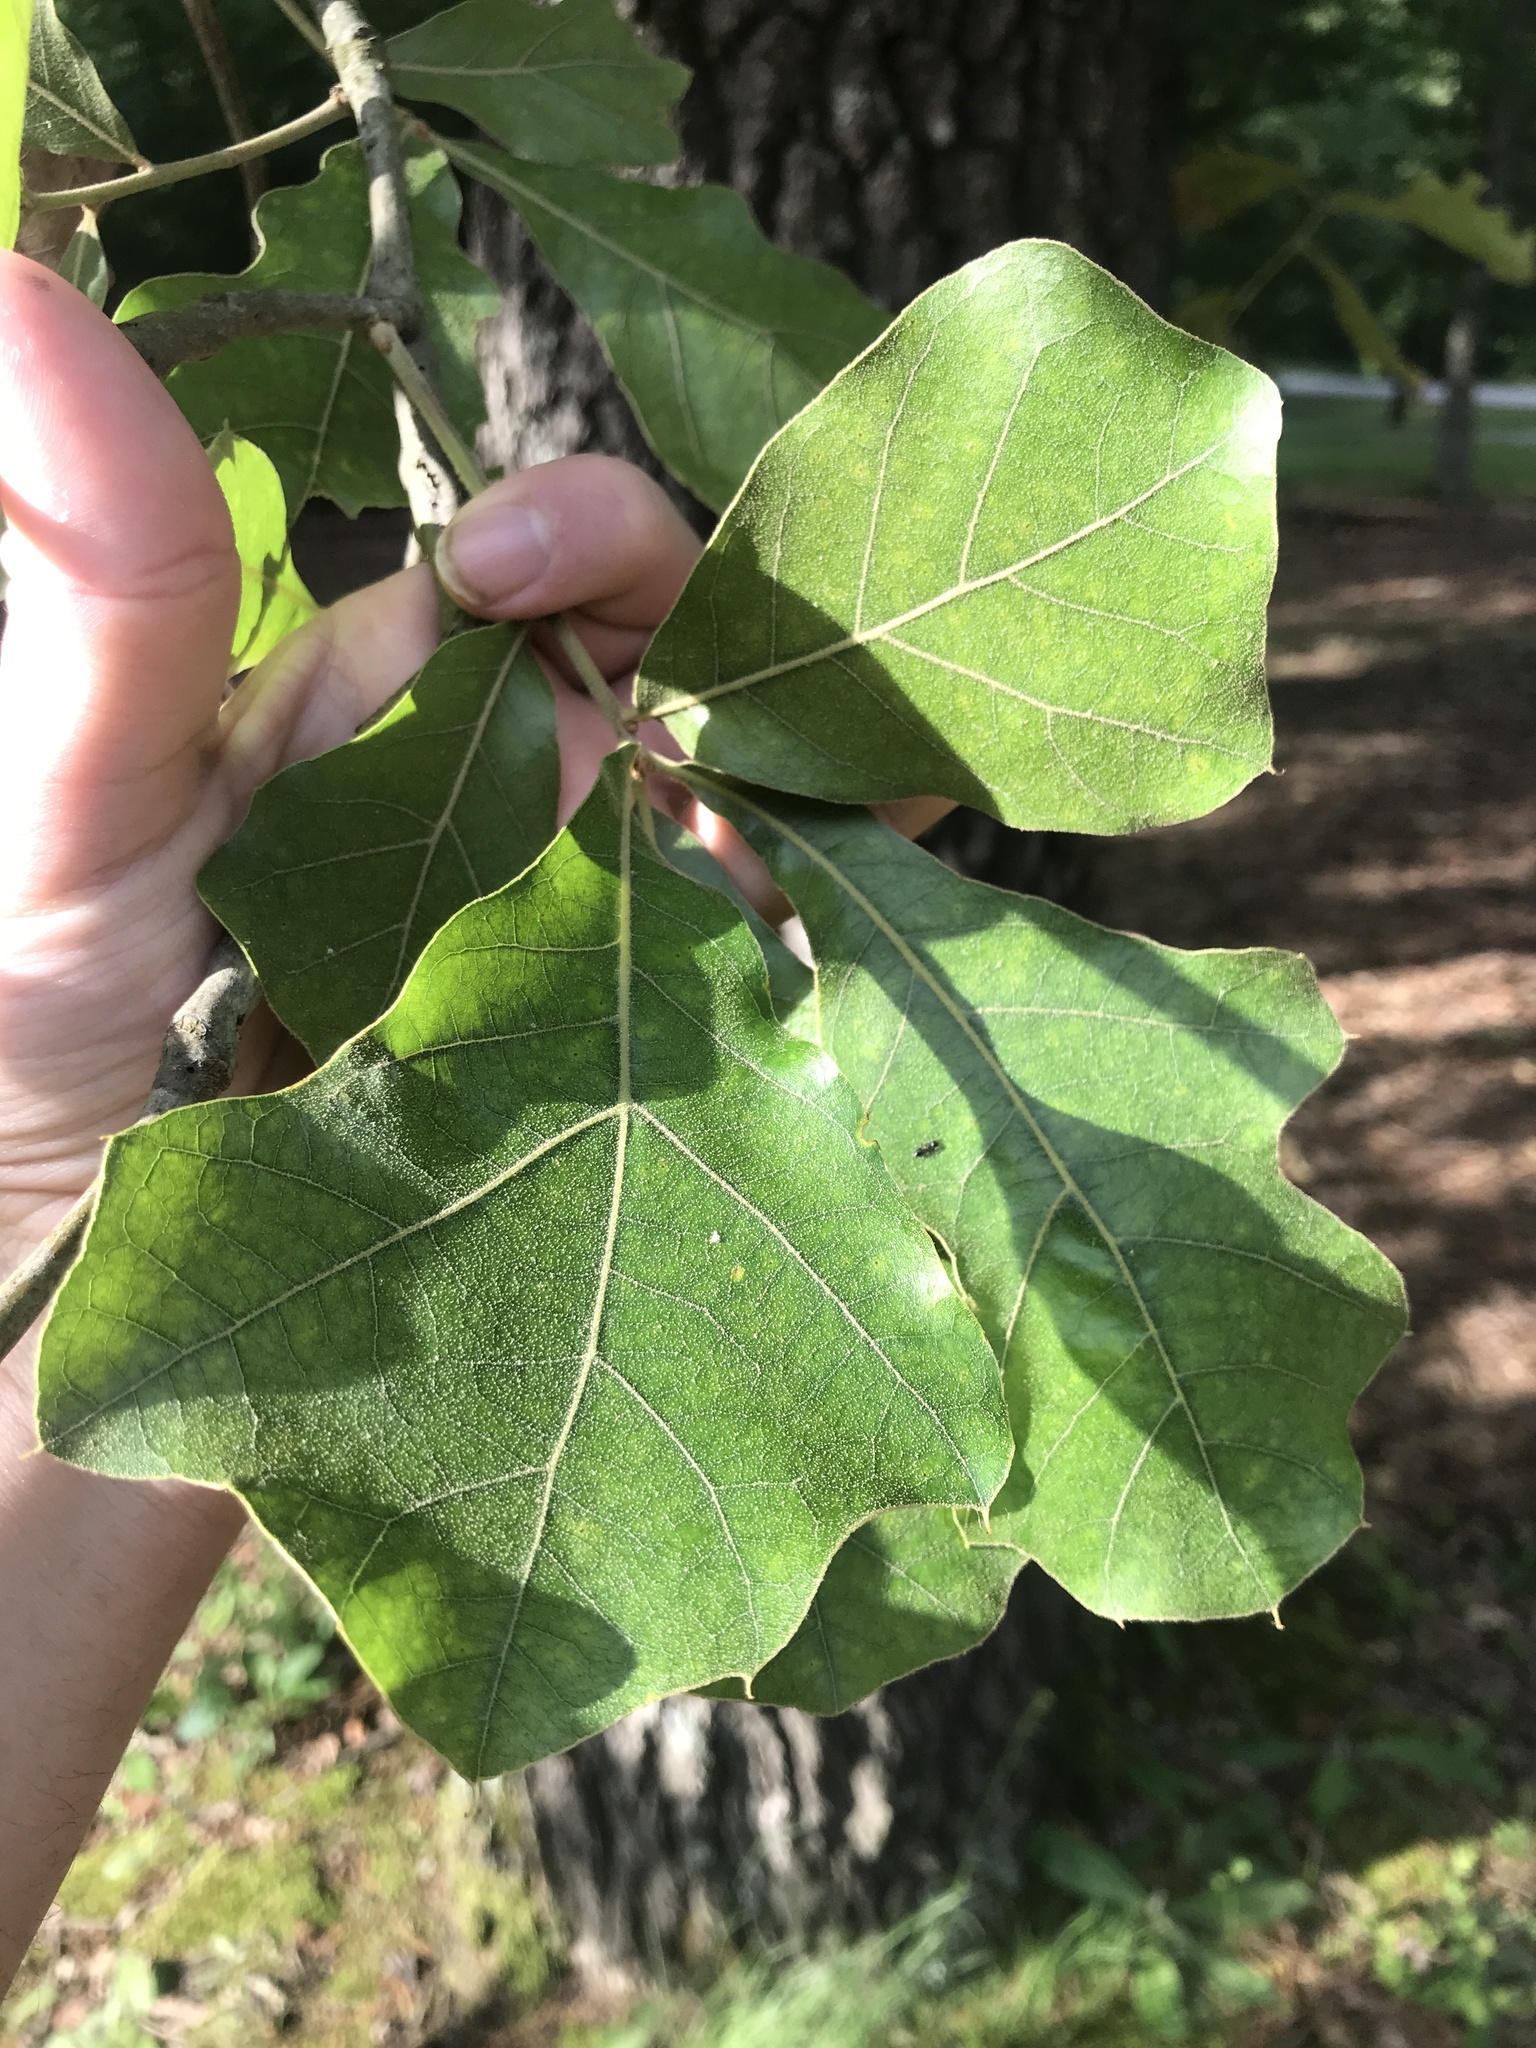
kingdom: Plantae
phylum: Tracheophyta
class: Magnoliopsida
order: Fagales
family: Fagaceae
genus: Quercus
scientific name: Quercus marilandica
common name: Blackjack oak
